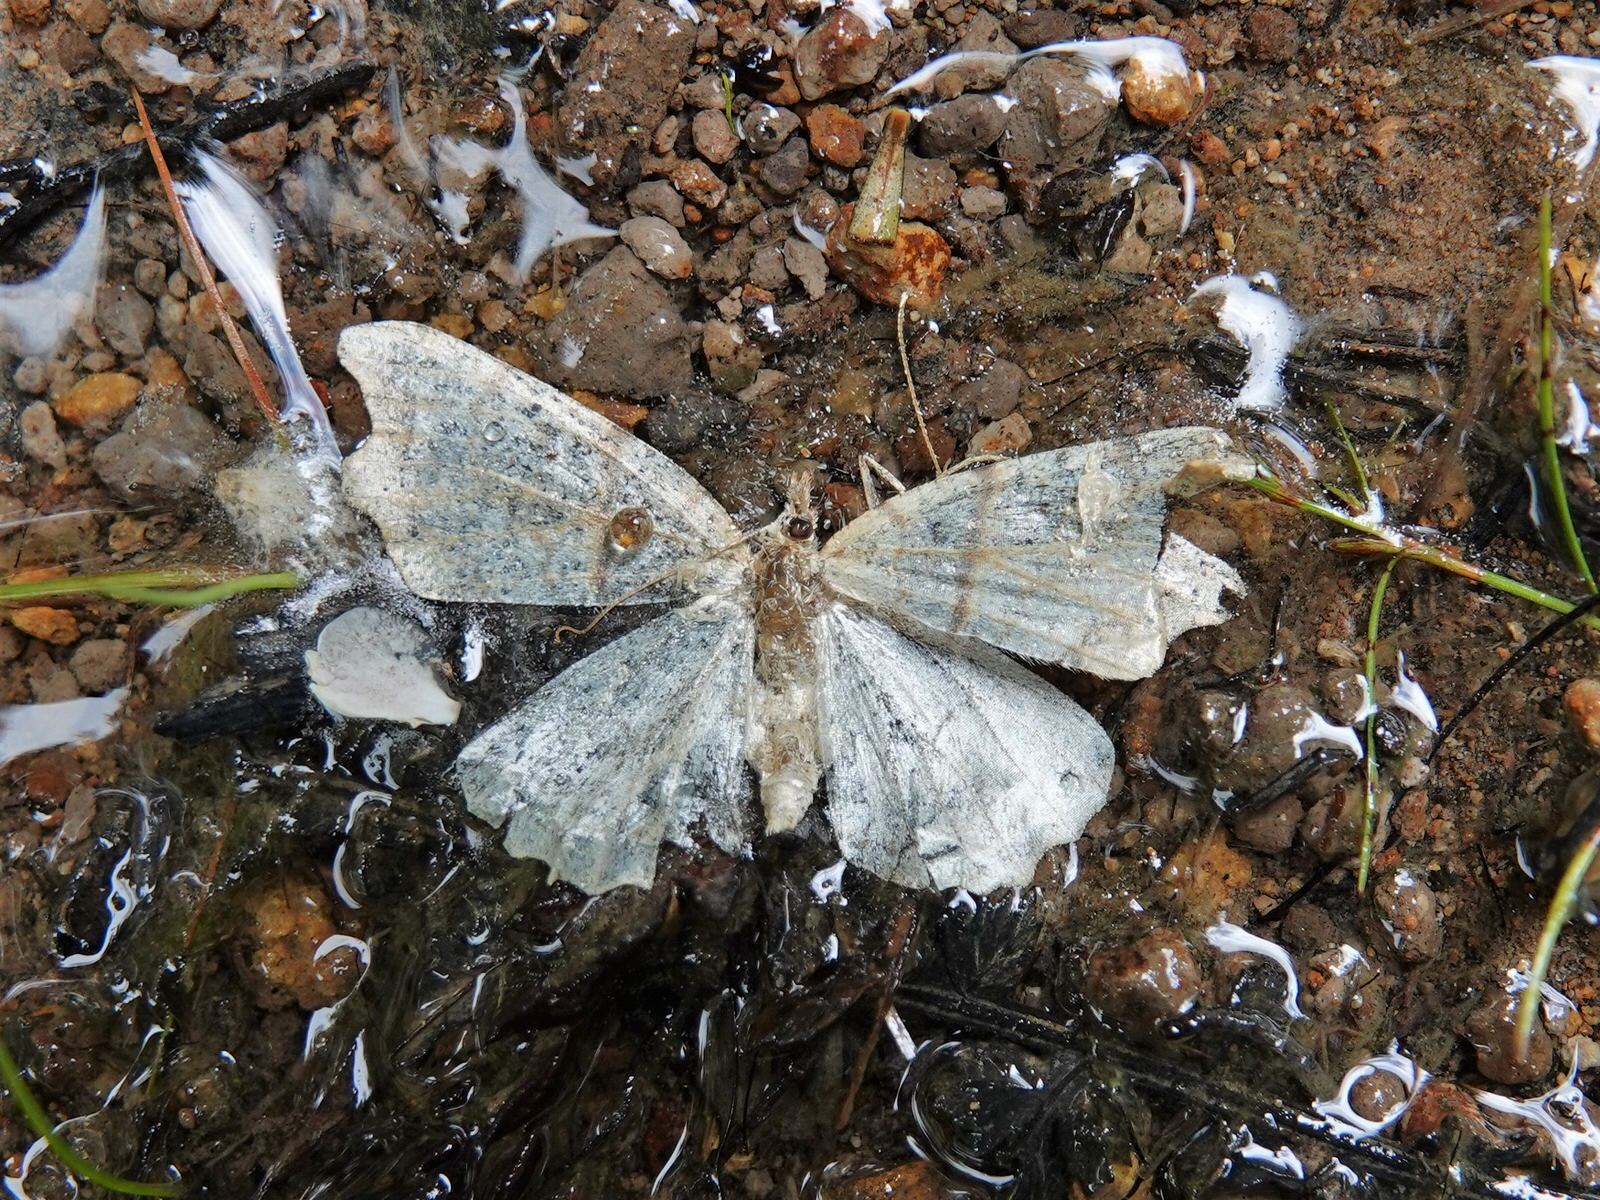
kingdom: Animalia
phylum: Arthropoda
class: Insecta
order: Lepidoptera
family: Geometridae
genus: Chalastra
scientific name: Chalastra pellurgata
